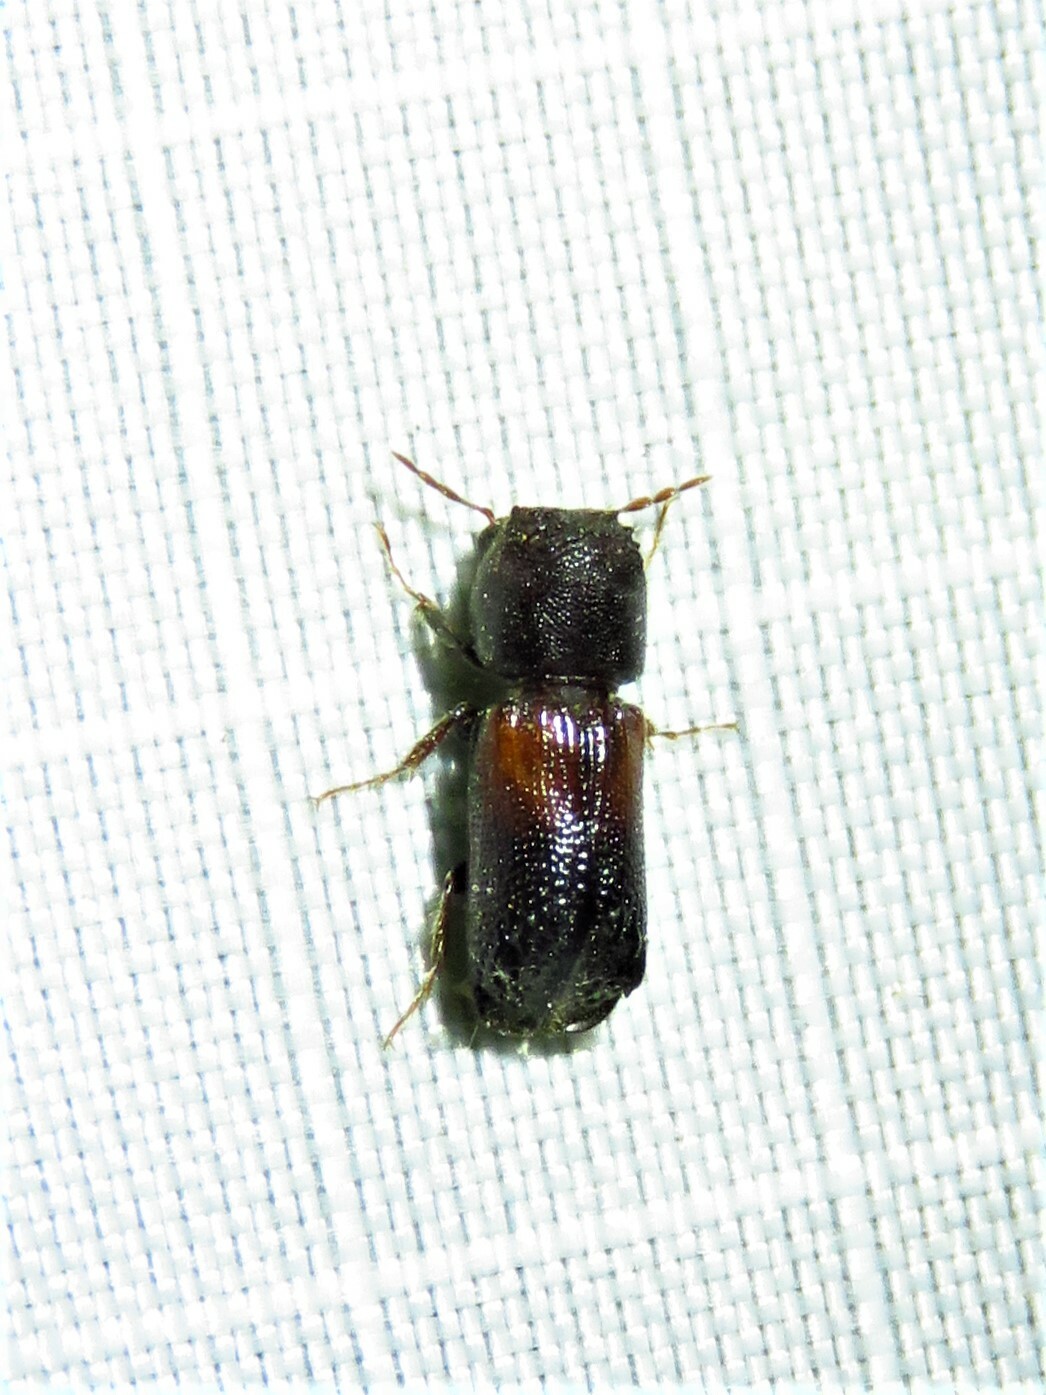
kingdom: Animalia
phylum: Arthropoda
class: Insecta
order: Coleoptera
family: Bostrichidae
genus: Xylobiops
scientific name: Xylobiops basilaris
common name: Red-shouldered bostrichid
